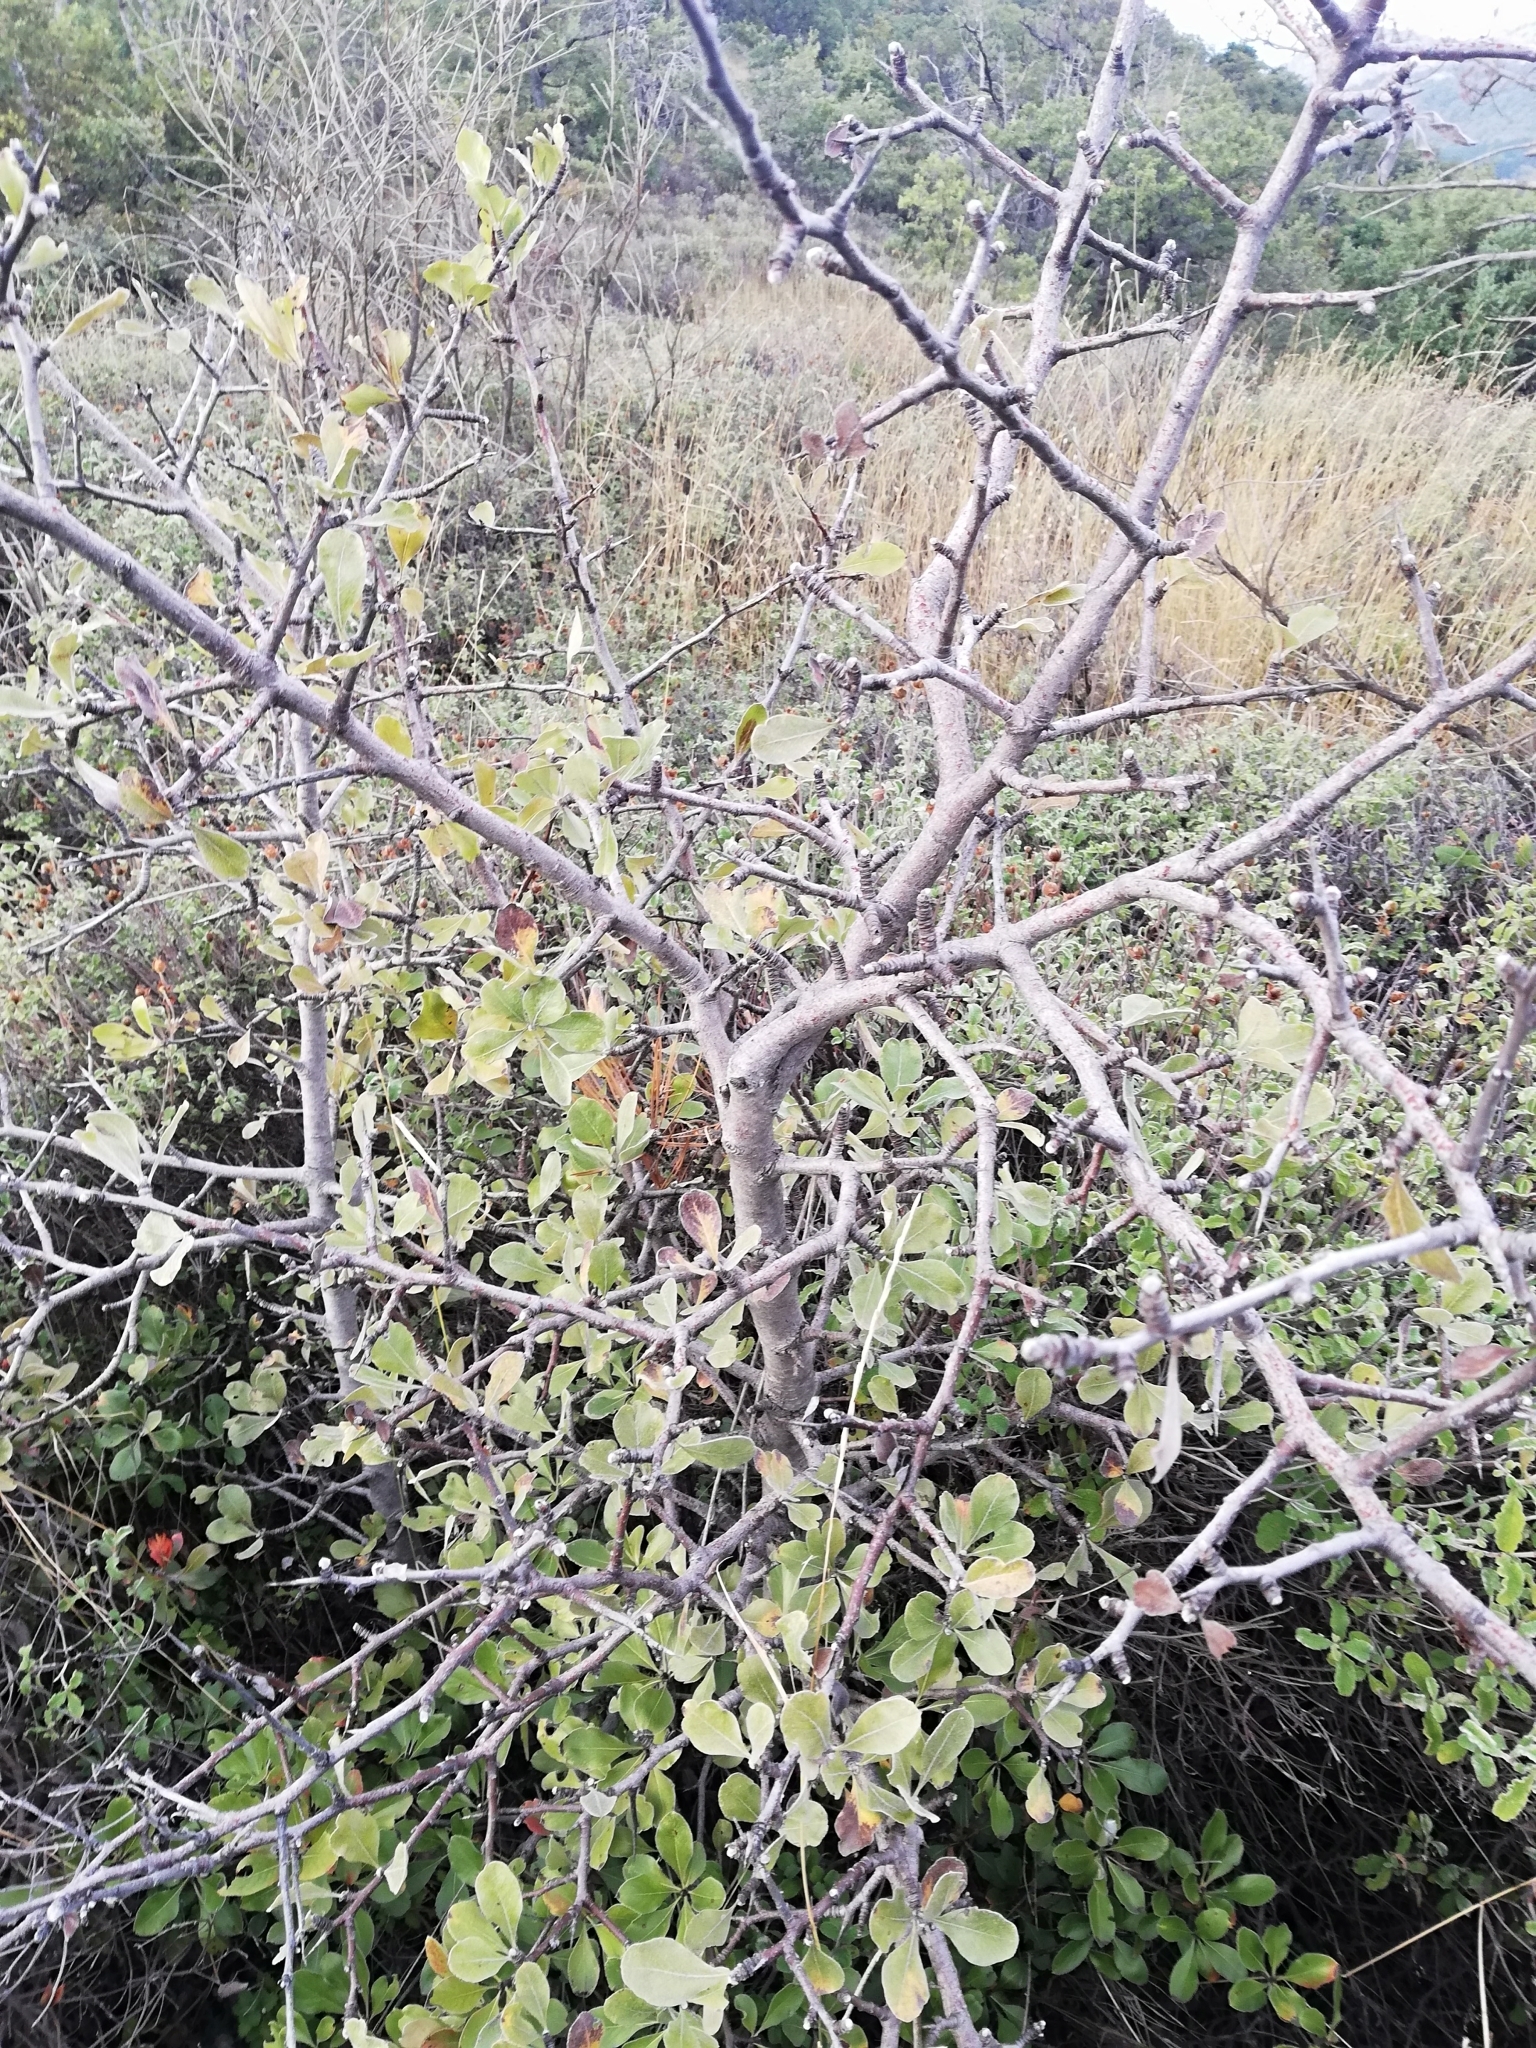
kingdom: Plantae
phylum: Tracheophyta
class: Magnoliopsida
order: Rosales
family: Rosaceae
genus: Pyrus
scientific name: Pyrus elaeagrifolia
